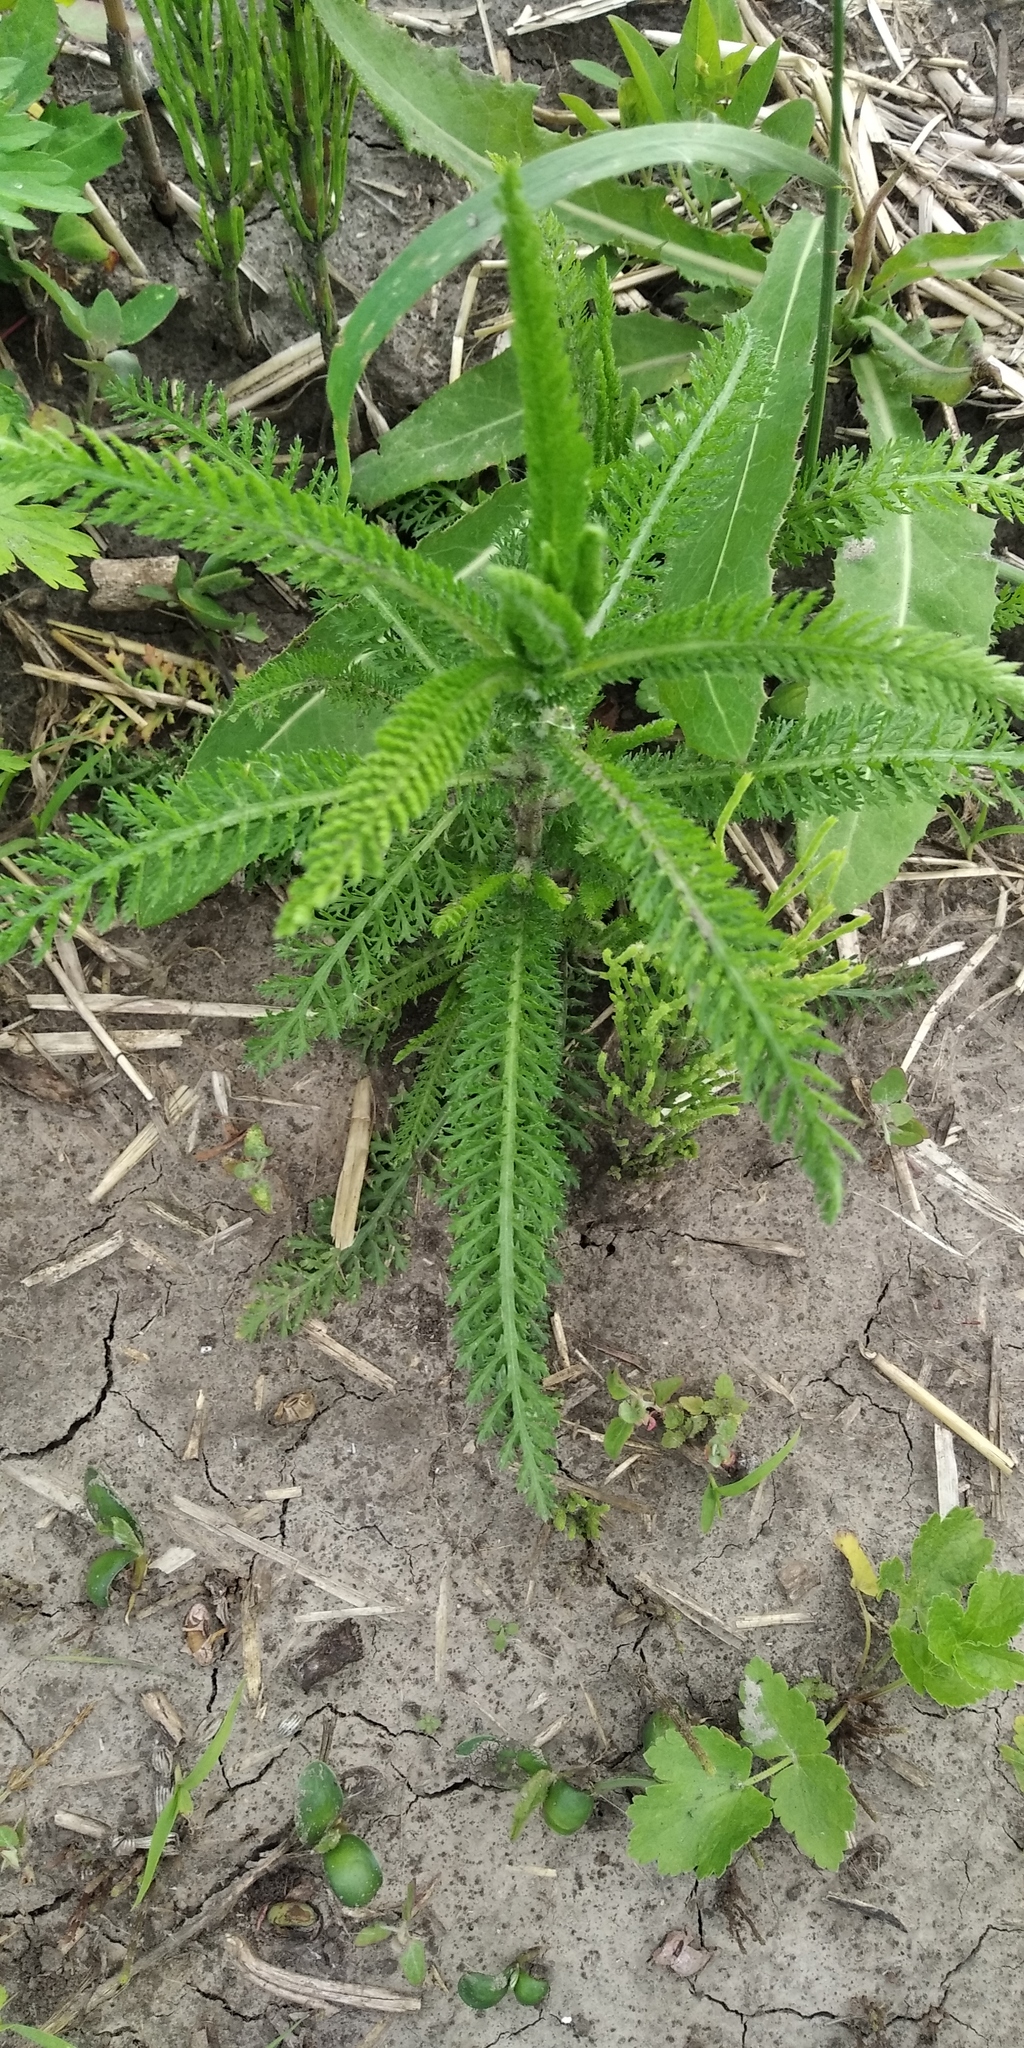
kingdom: Plantae
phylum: Tracheophyta
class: Magnoliopsida
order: Asterales
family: Asteraceae
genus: Achillea
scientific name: Achillea millefolium
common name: Yarrow
